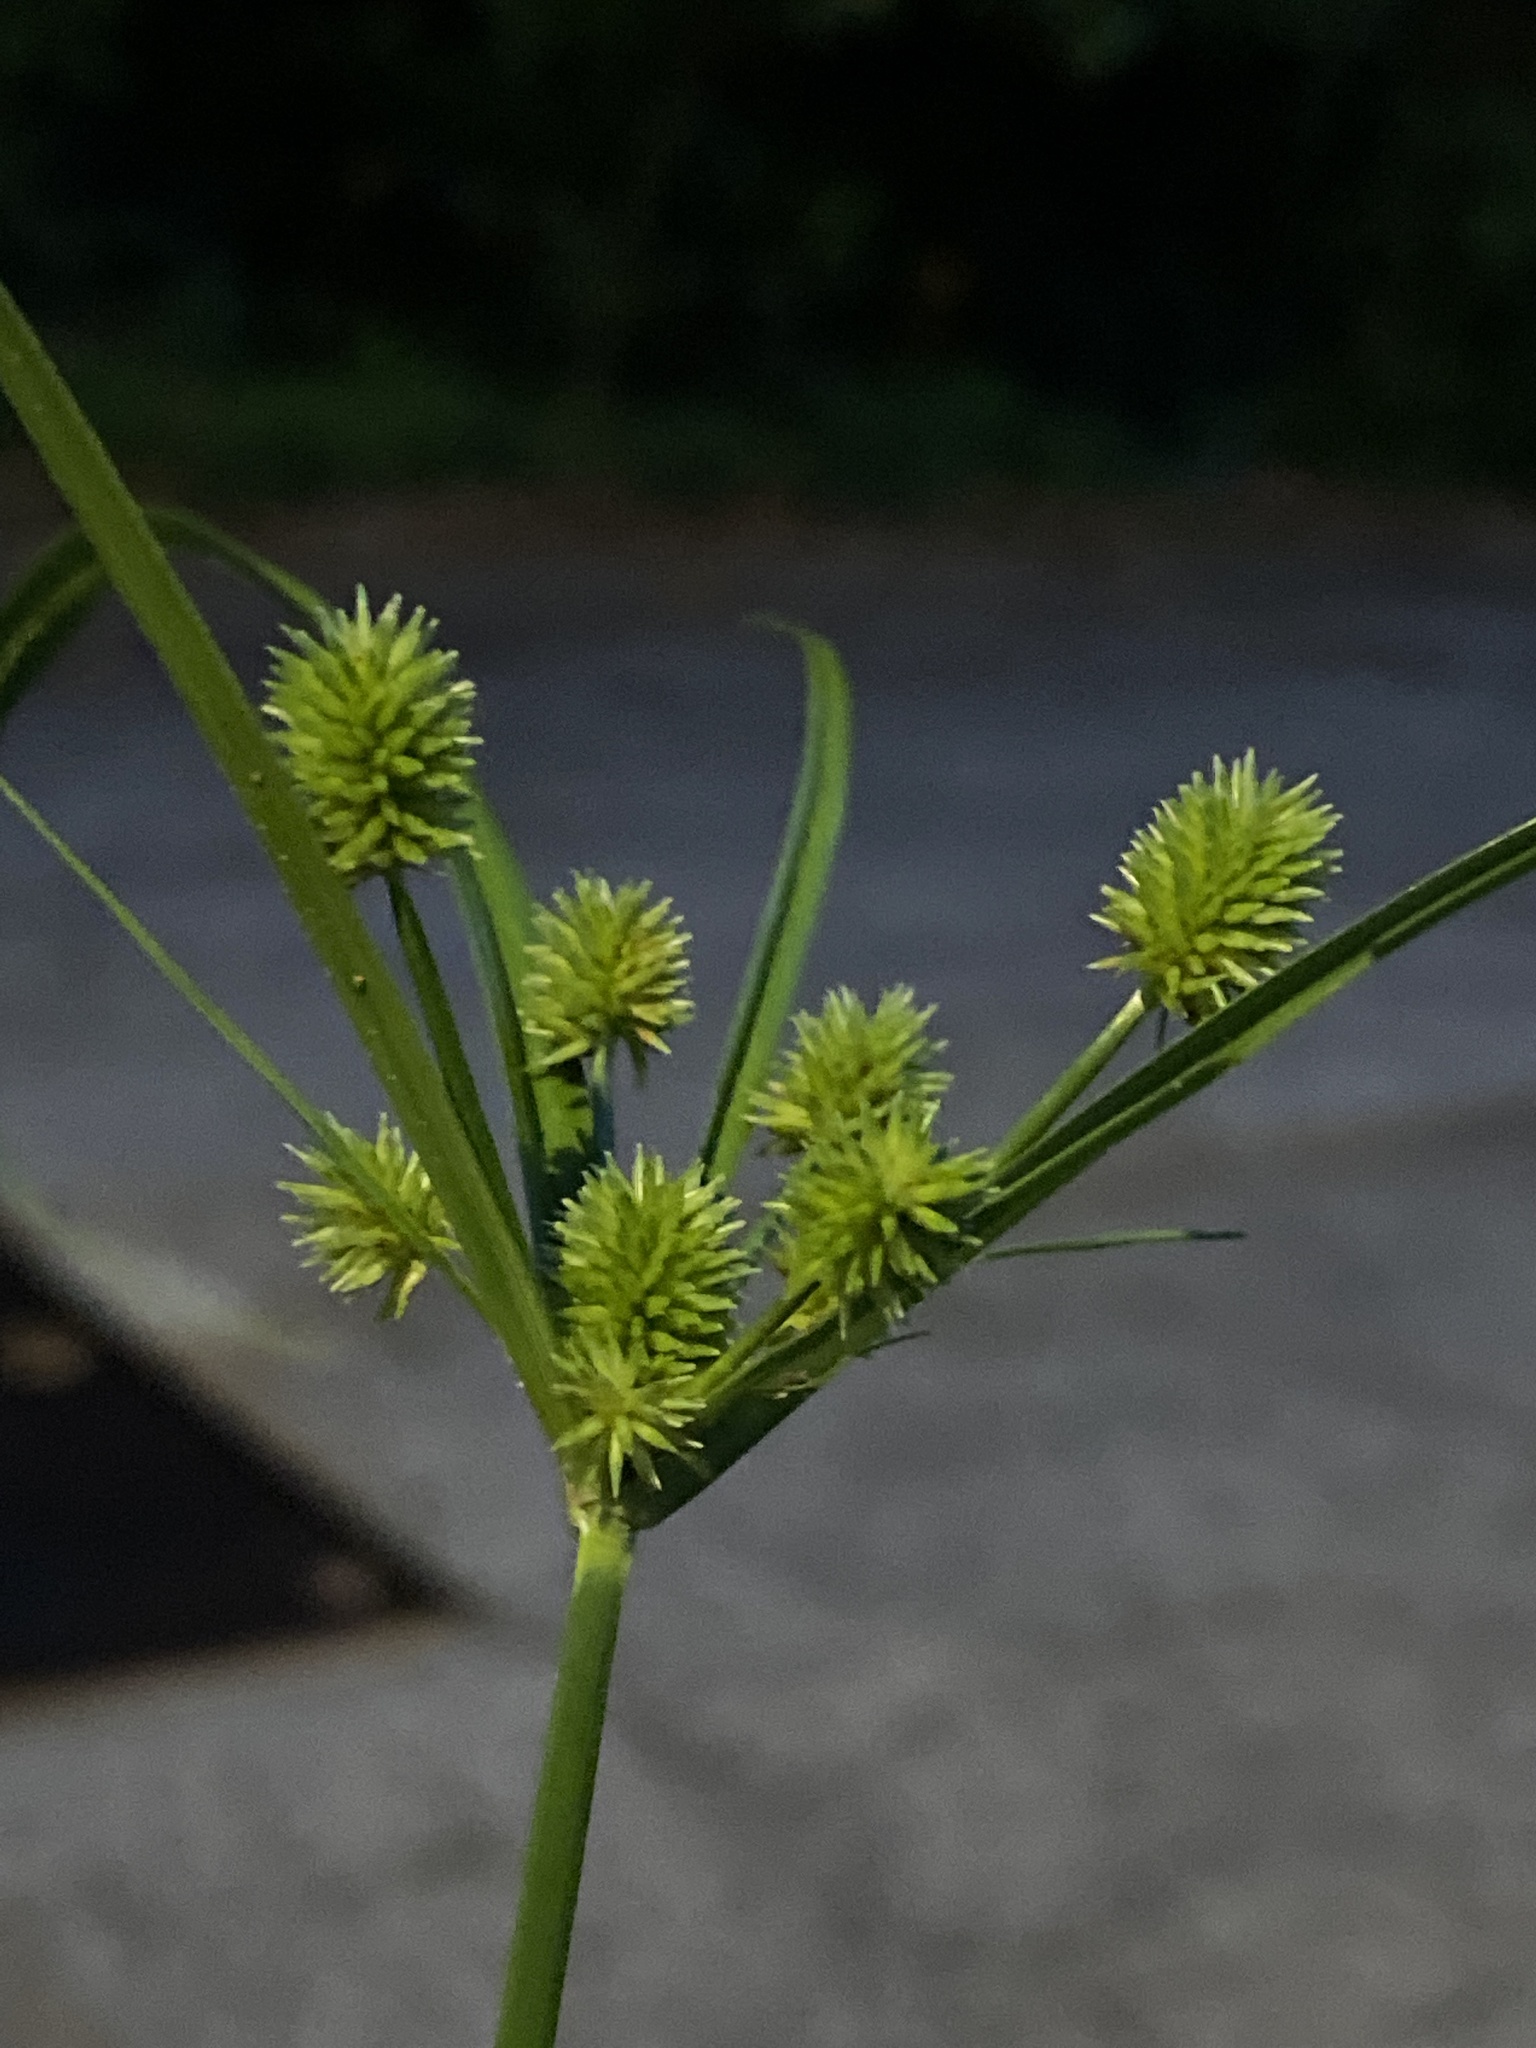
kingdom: Plantae
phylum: Tracheophyta
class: Liliopsida
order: Poales
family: Cyperaceae
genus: Cyperus
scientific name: Cyperus echinatus
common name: Teasel sedge
